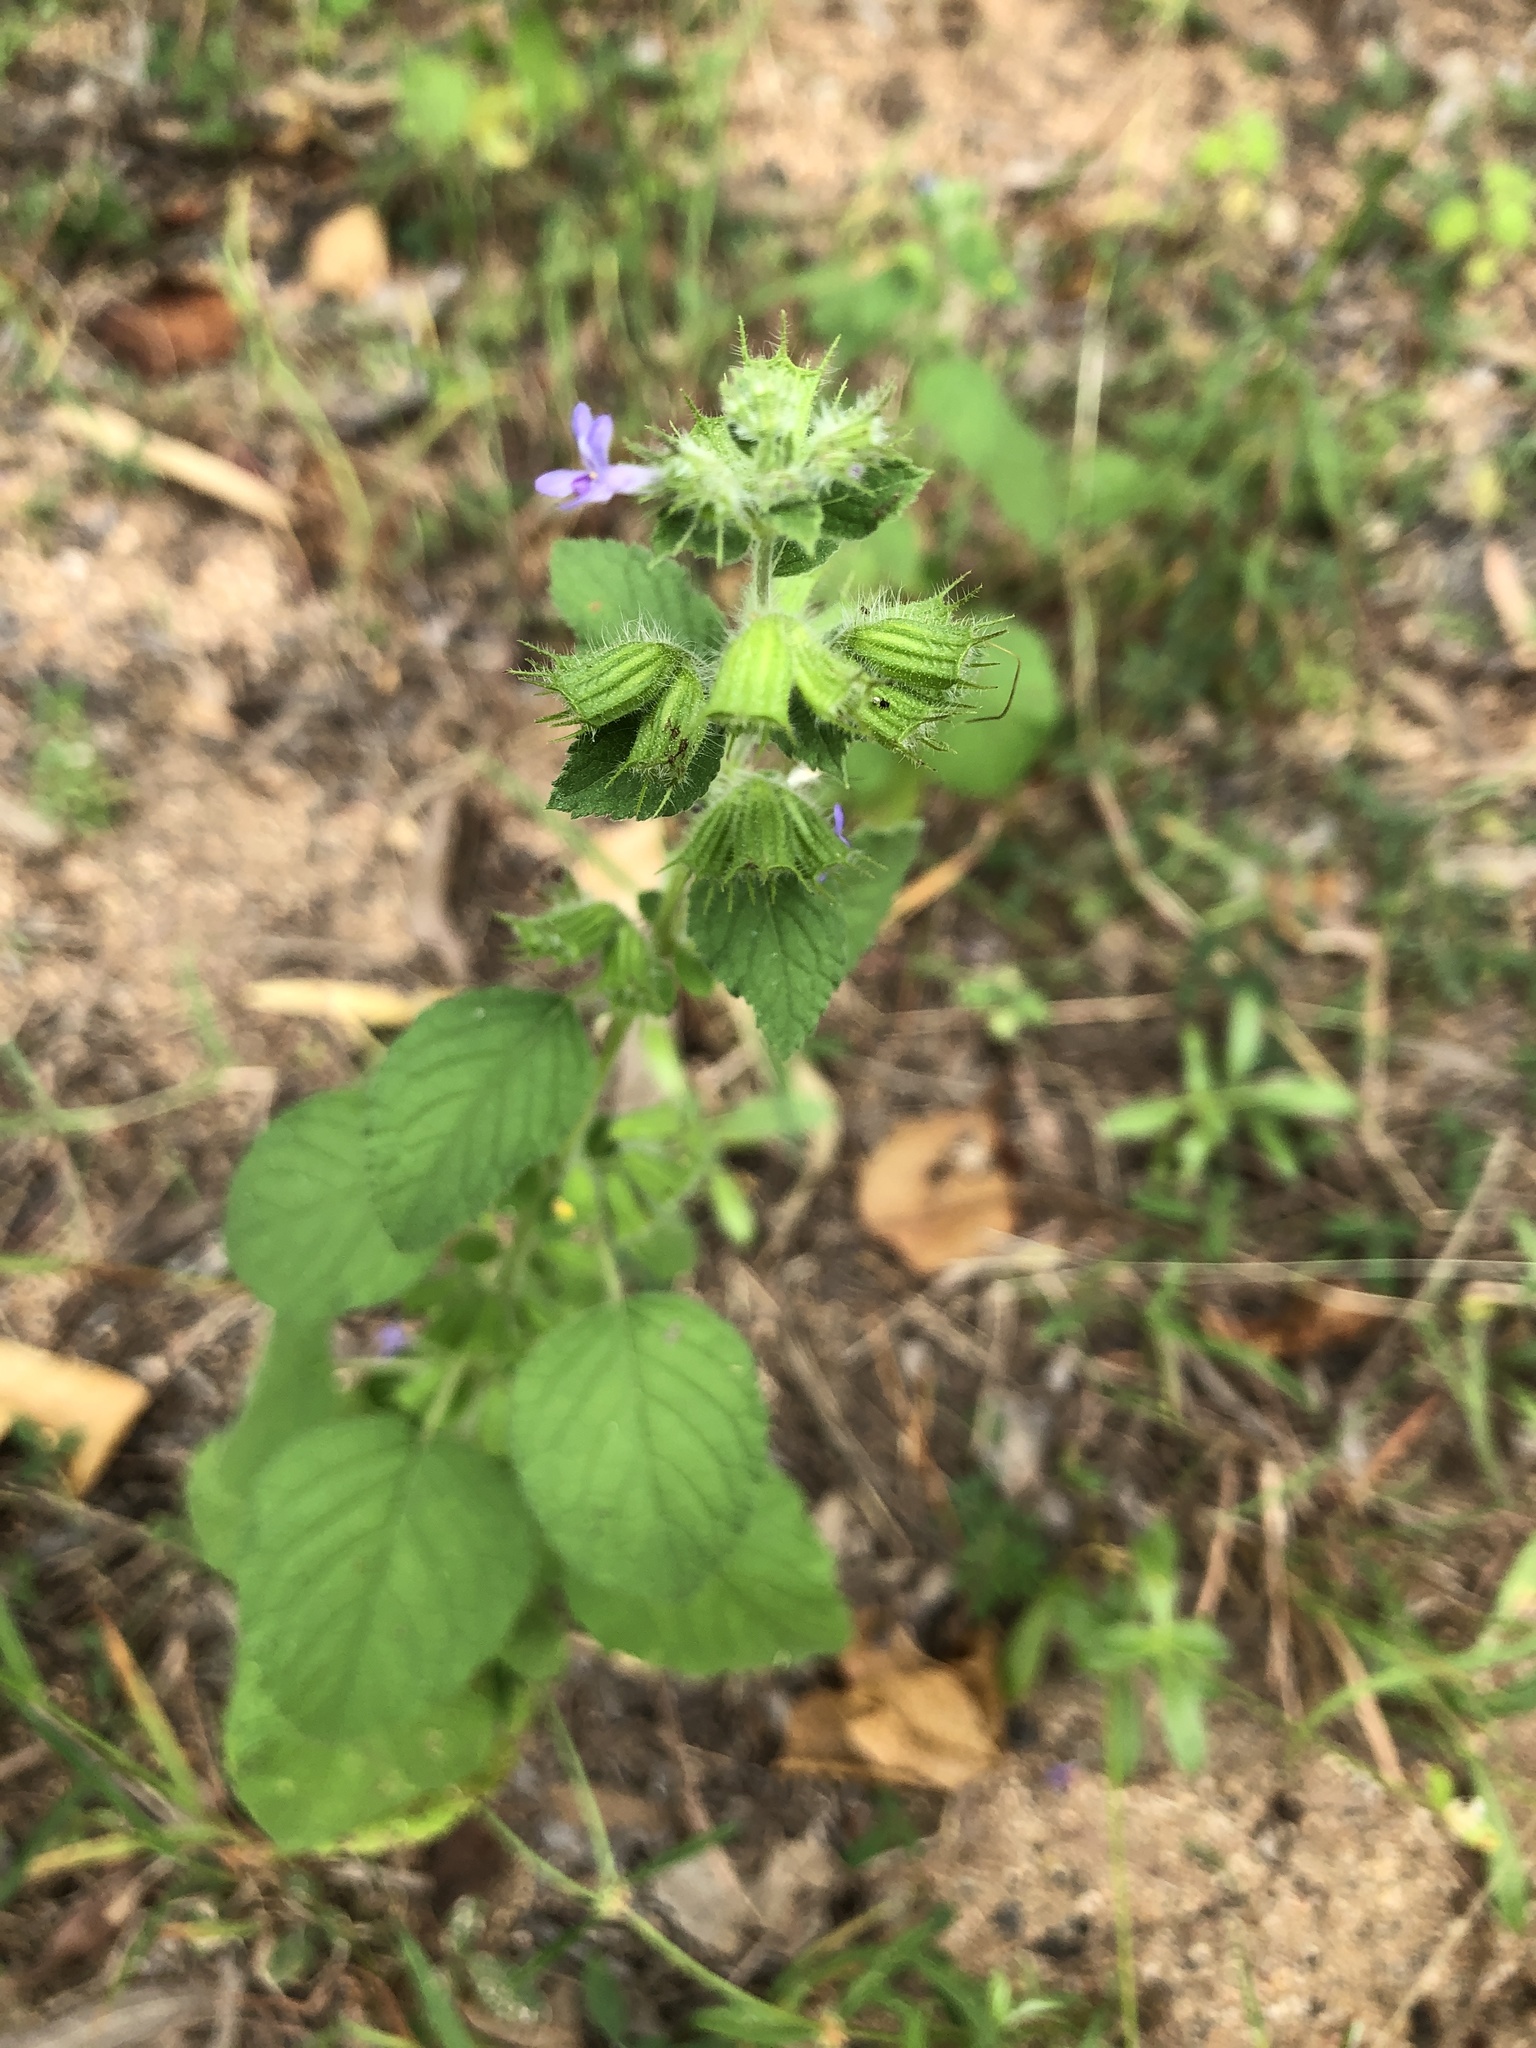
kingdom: Plantae
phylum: Tracheophyta
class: Magnoliopsida
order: Lamiales
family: Lamiaceae
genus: Mesosphaerum
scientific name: Mesosphaerum suaveolens
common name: Pignut
